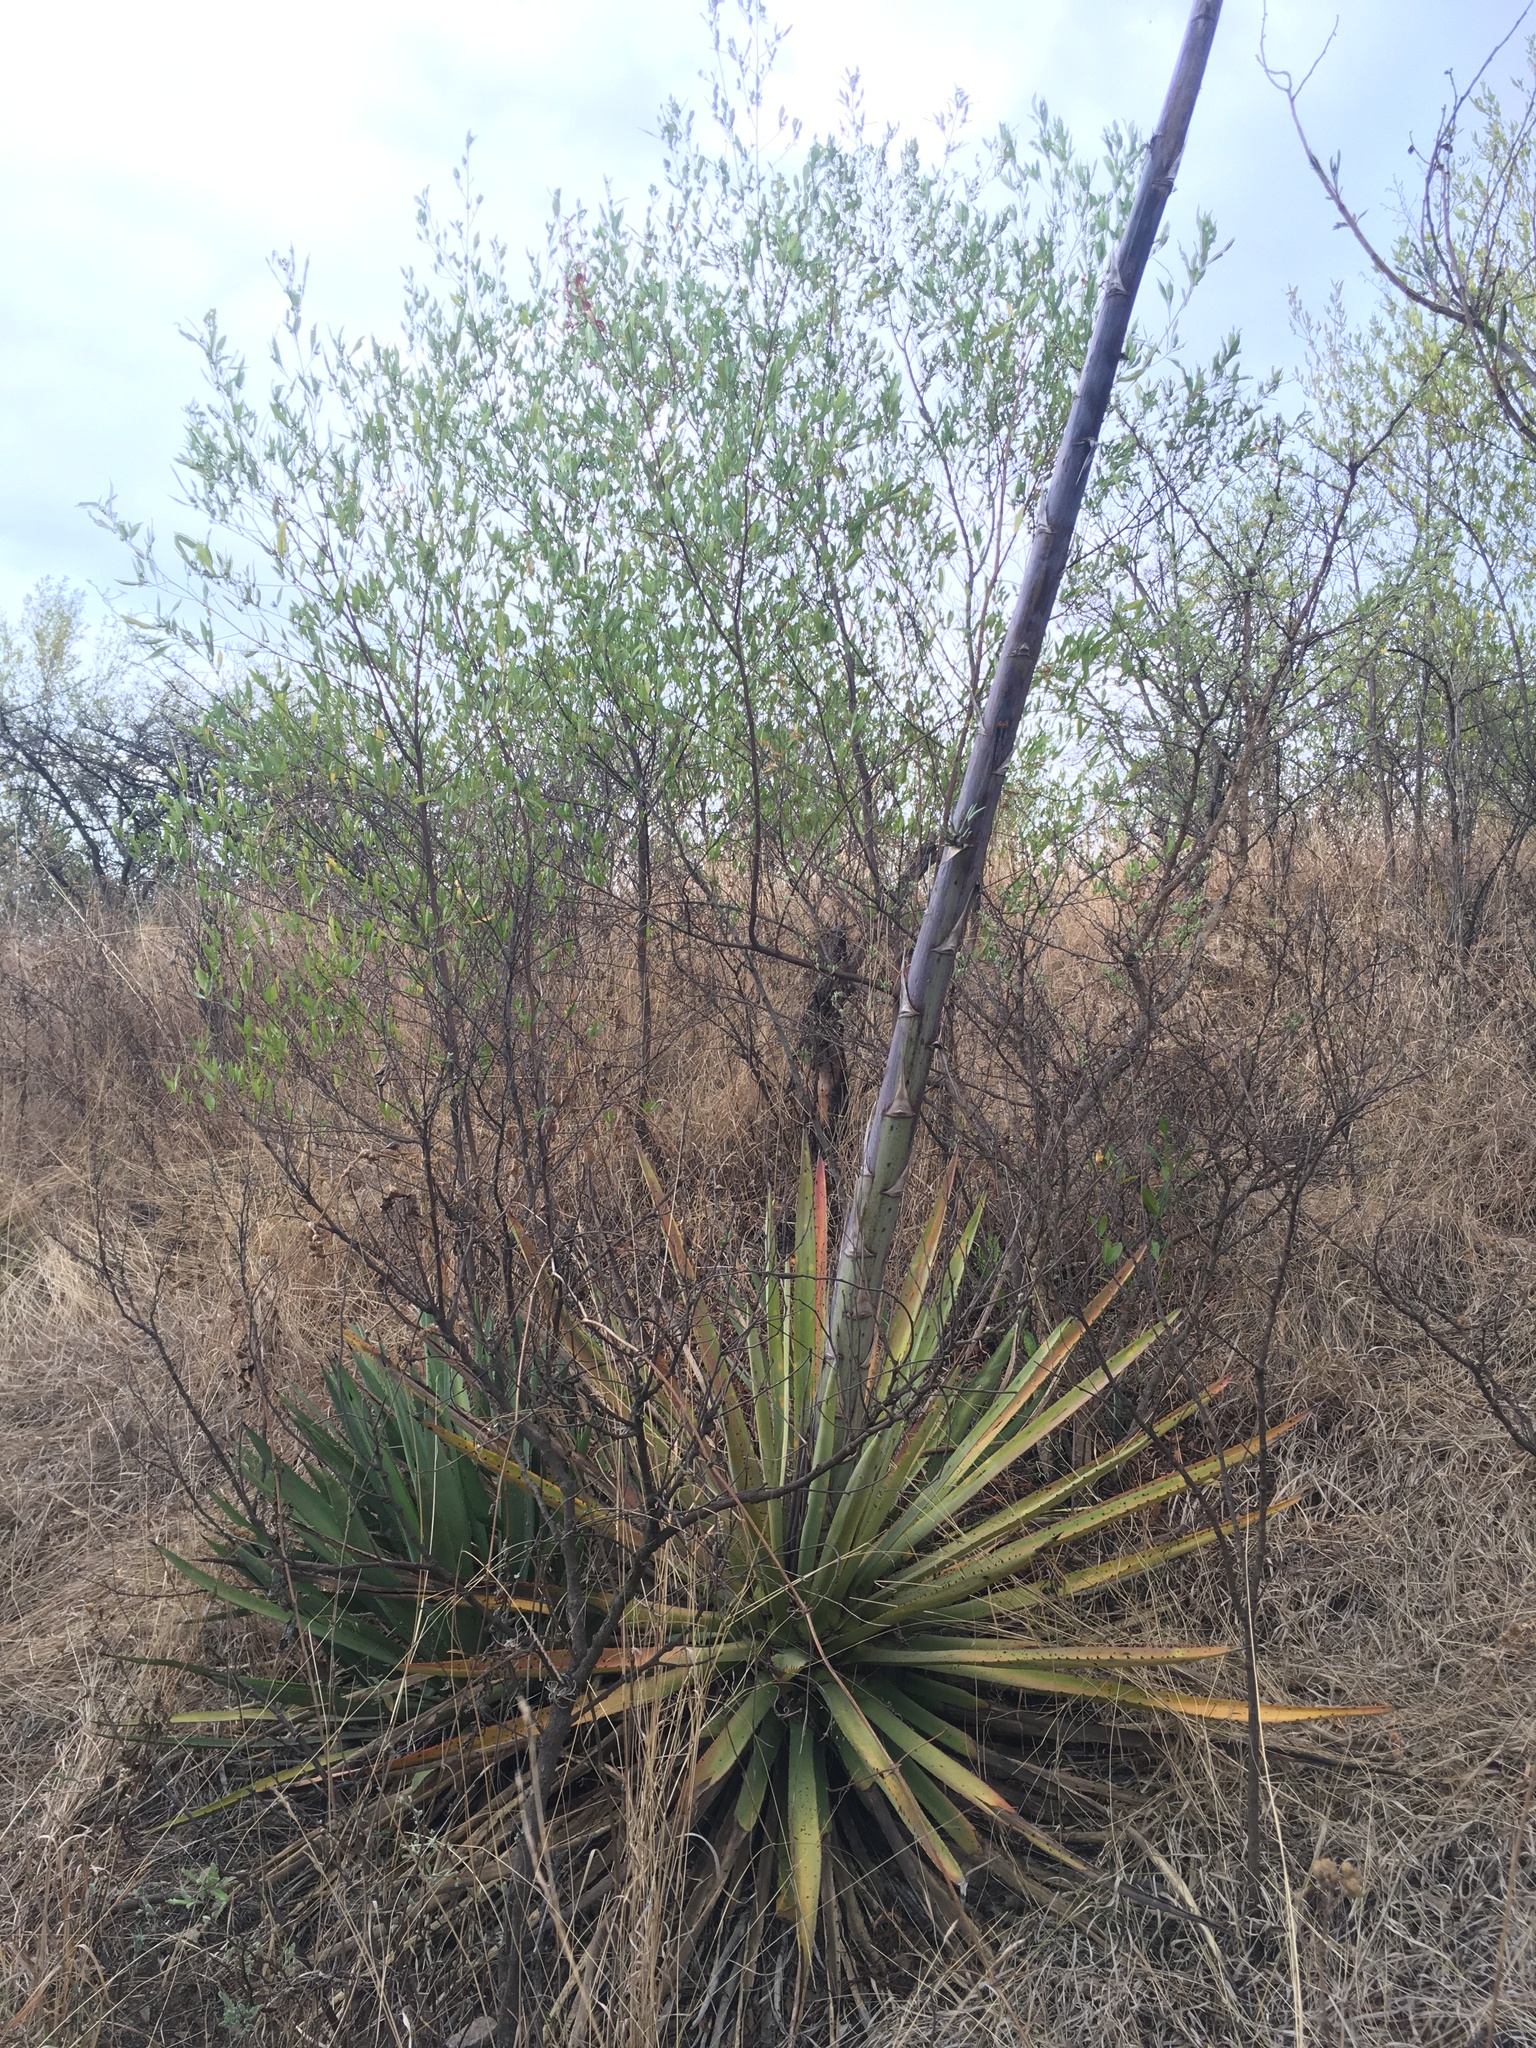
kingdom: Plantae
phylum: Tracheophyta
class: Liliopsida
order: Asparagales
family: Asparagaceae
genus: Agave
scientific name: Agave vivipara
